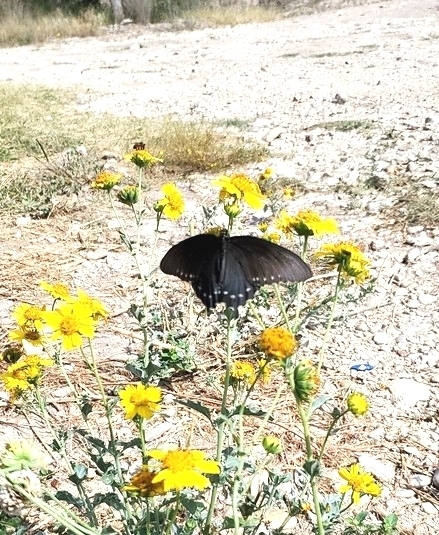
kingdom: Animalia
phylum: Arthropoda
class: Insecta
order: Lepidoptera
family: Papilionidae
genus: Battus
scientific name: Battus philenor
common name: Pipevine swallowtail
